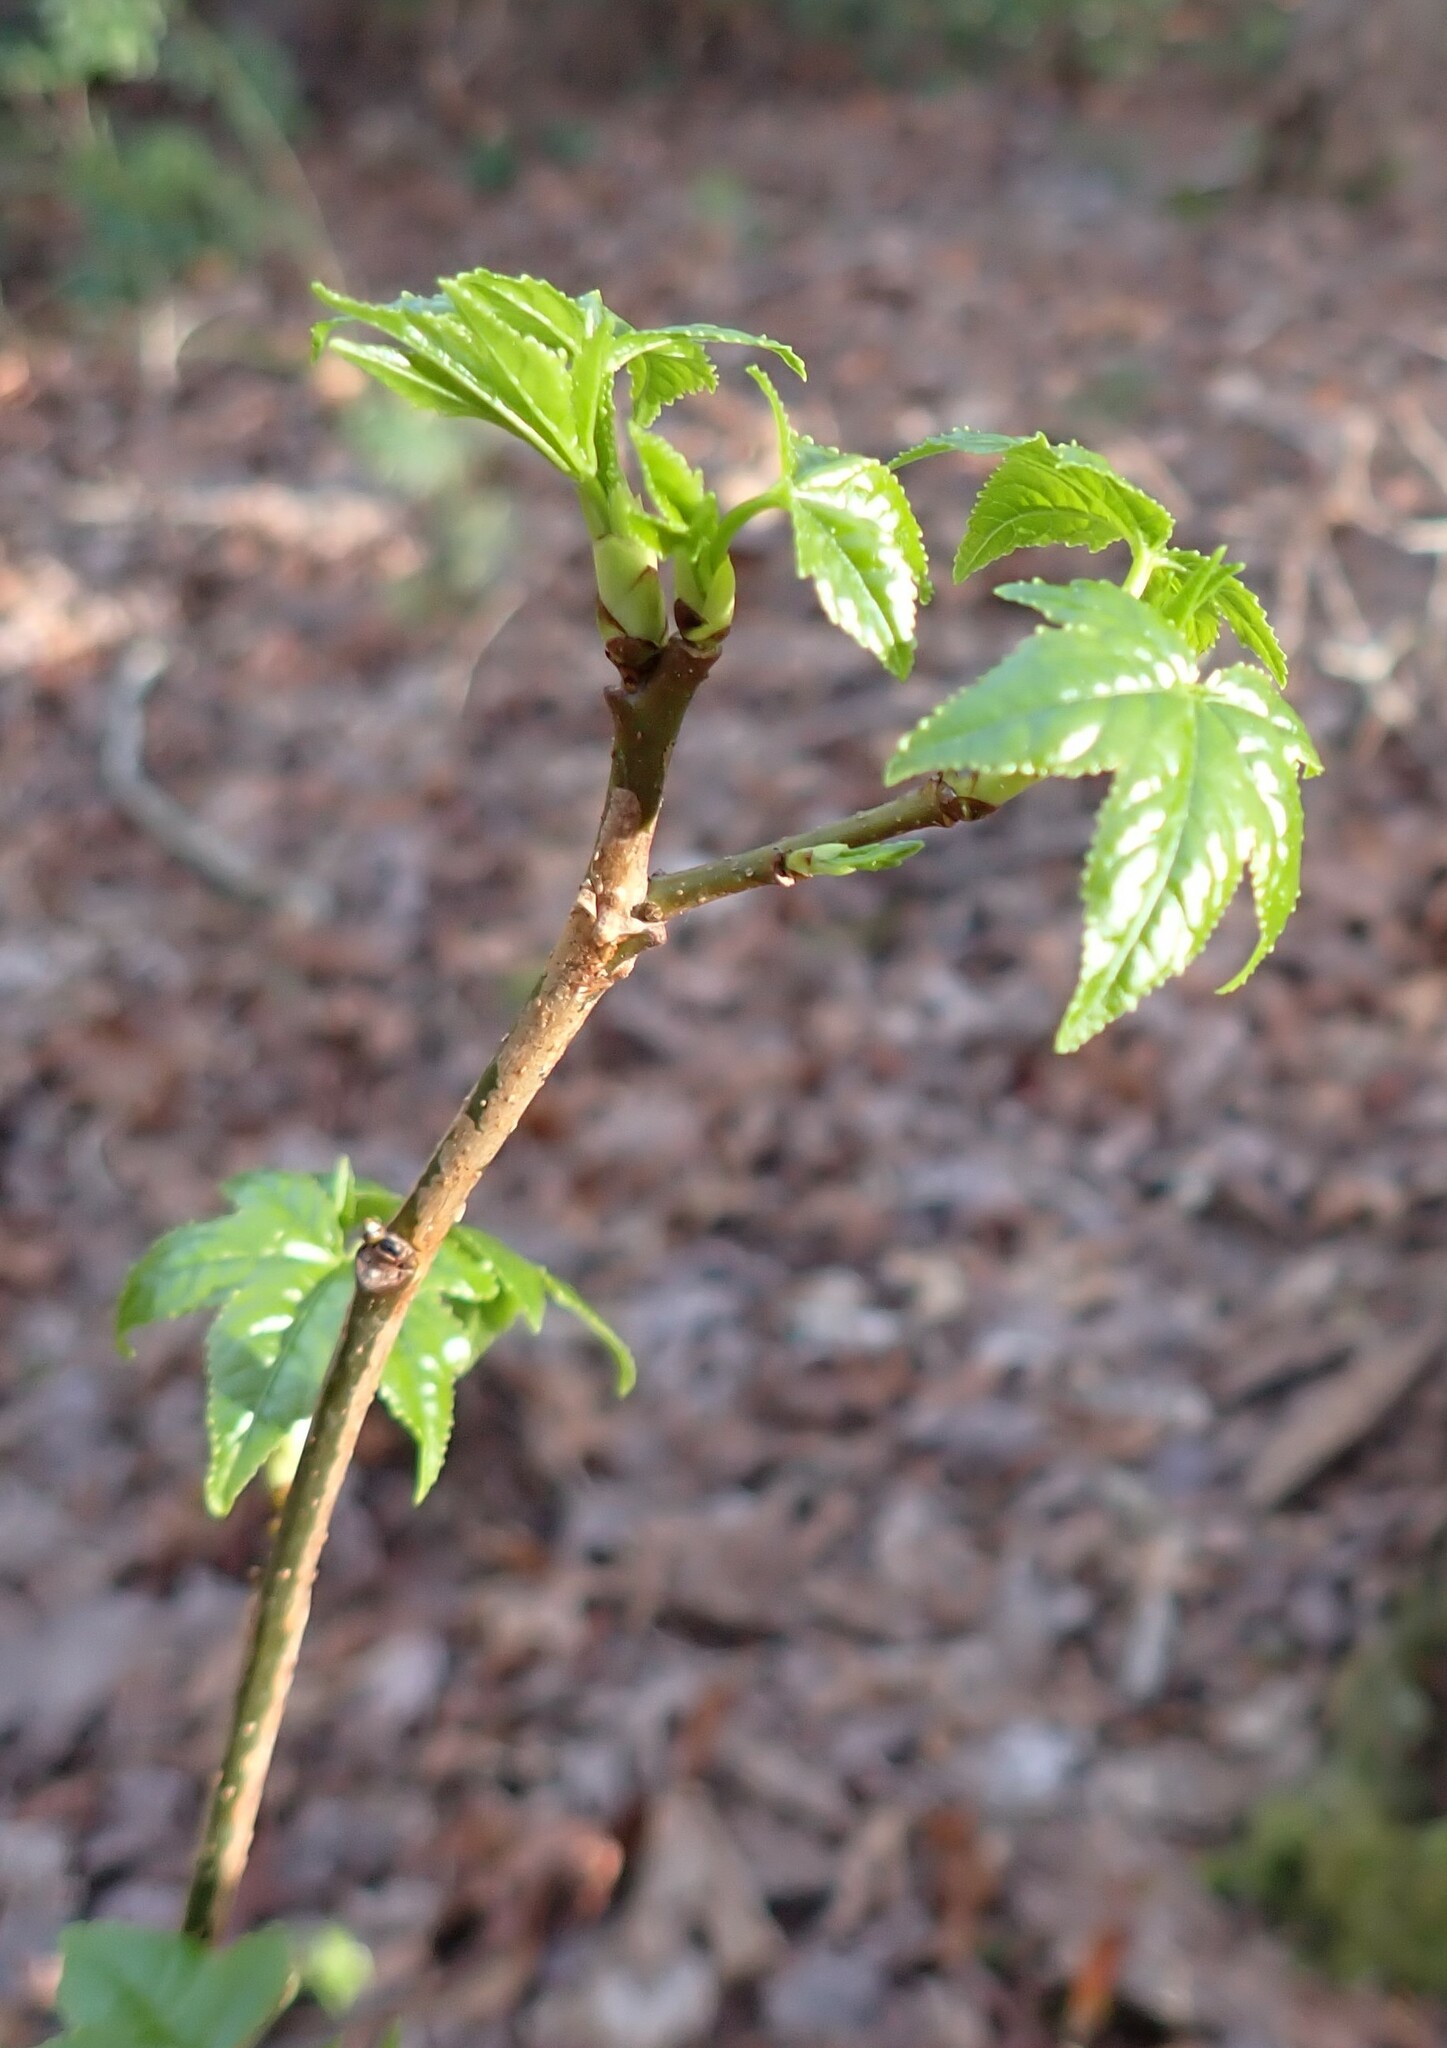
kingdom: Plantae
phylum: Tracheophyta
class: Magnoliopsida
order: Saxifragales
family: Altingiaceae
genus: Liquidambar
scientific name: Liquidambar styraciflua
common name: Sweet gum
